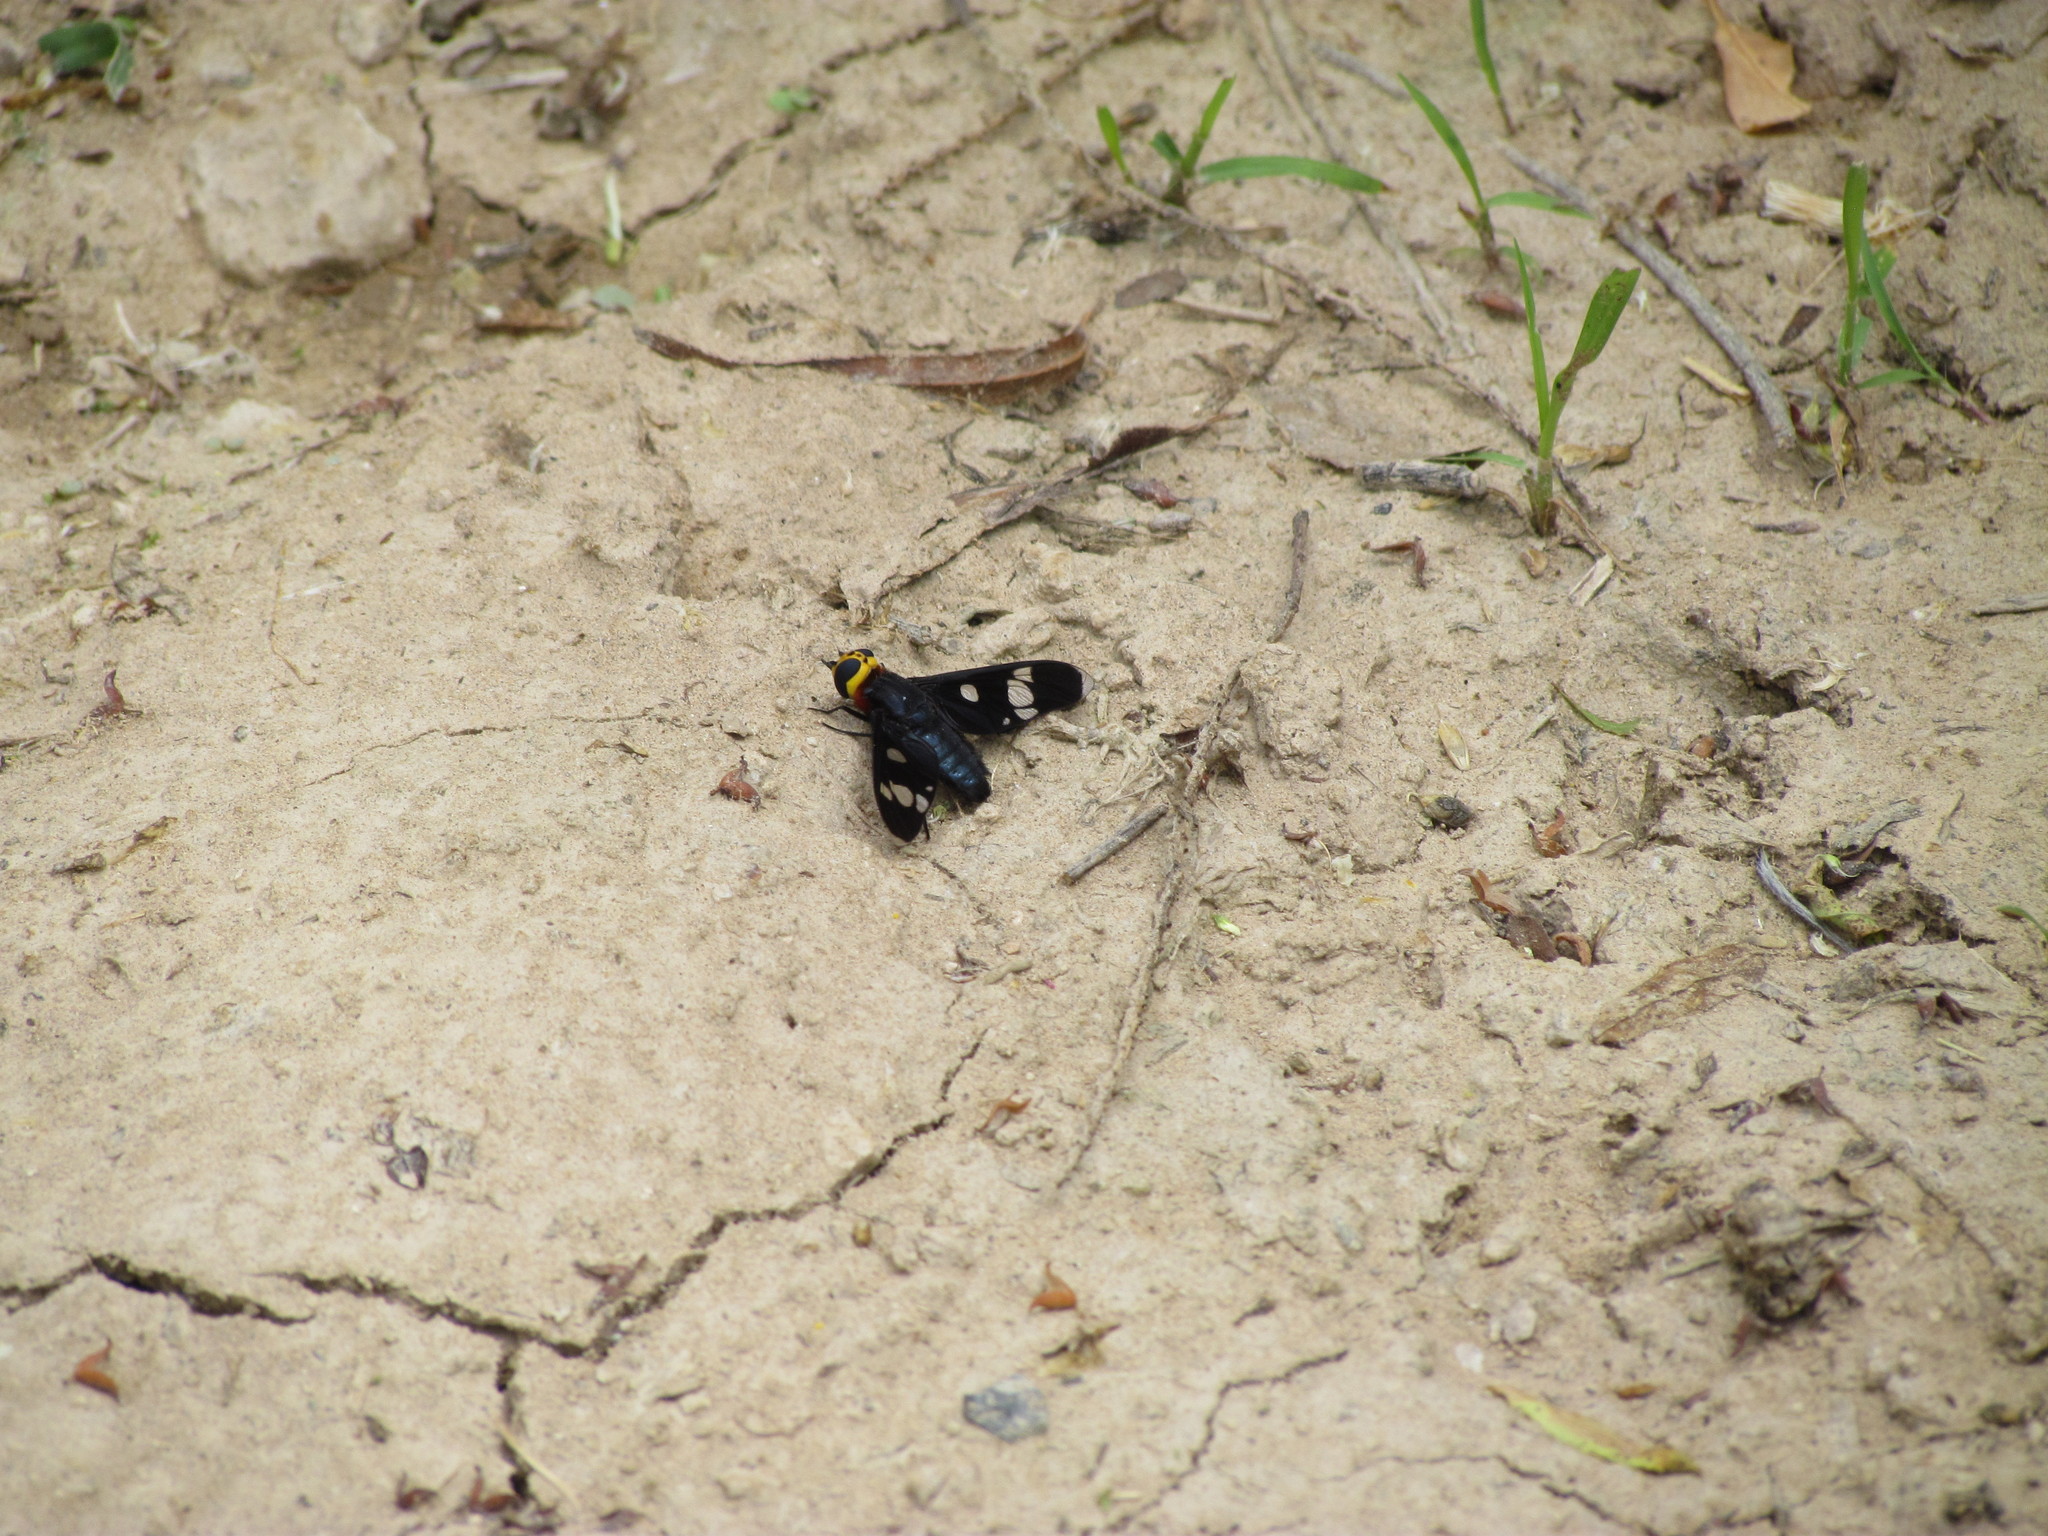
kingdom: Animalia
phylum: Arthropoda
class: Insecta
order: Diptera
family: Bombyliidae
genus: Hyperalonia
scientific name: Hyperalonia morio
